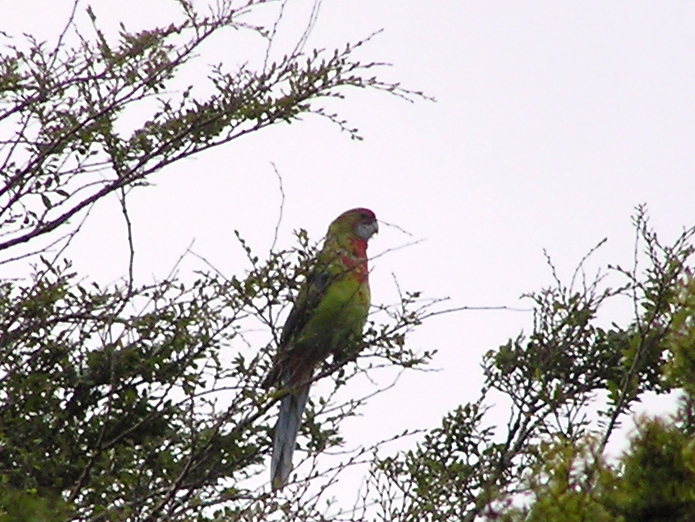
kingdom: Animalia
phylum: Chordata
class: Aves
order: Psittaciformes
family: Psittacidae
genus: Platycercus
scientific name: Platycercus eximius
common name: Eastern rosella
